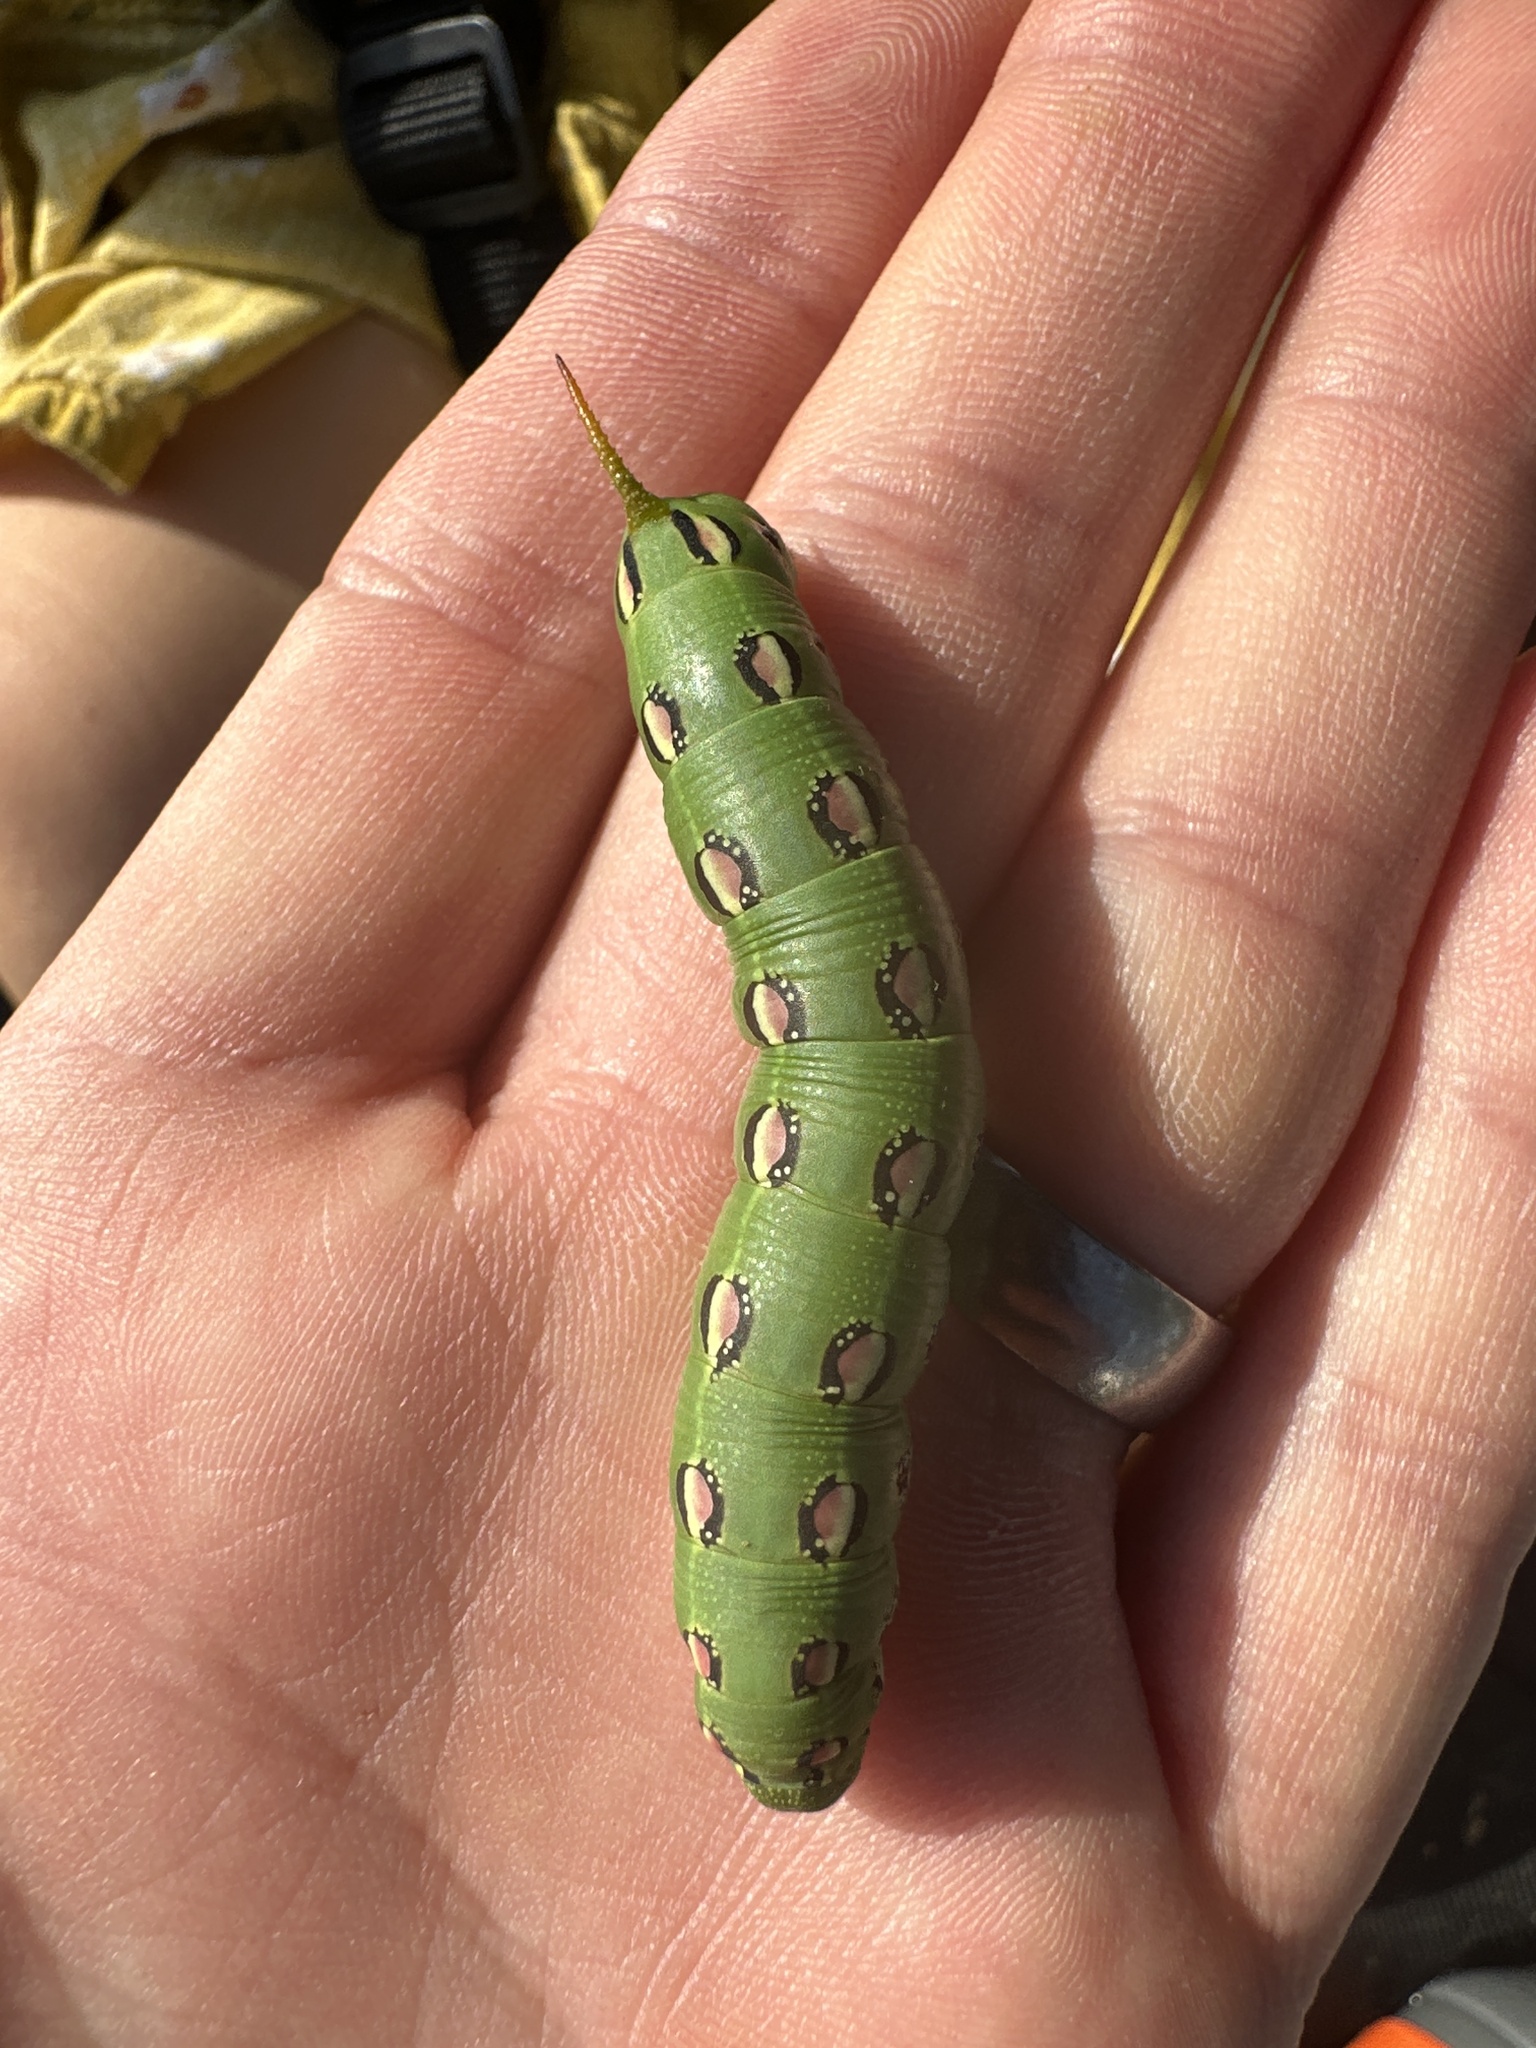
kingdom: Animalia
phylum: Arthropoda
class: Insecta
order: Lepidoptera
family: Sphingidae
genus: Hyles
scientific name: Hyles lineata
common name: White-lined sphinx
